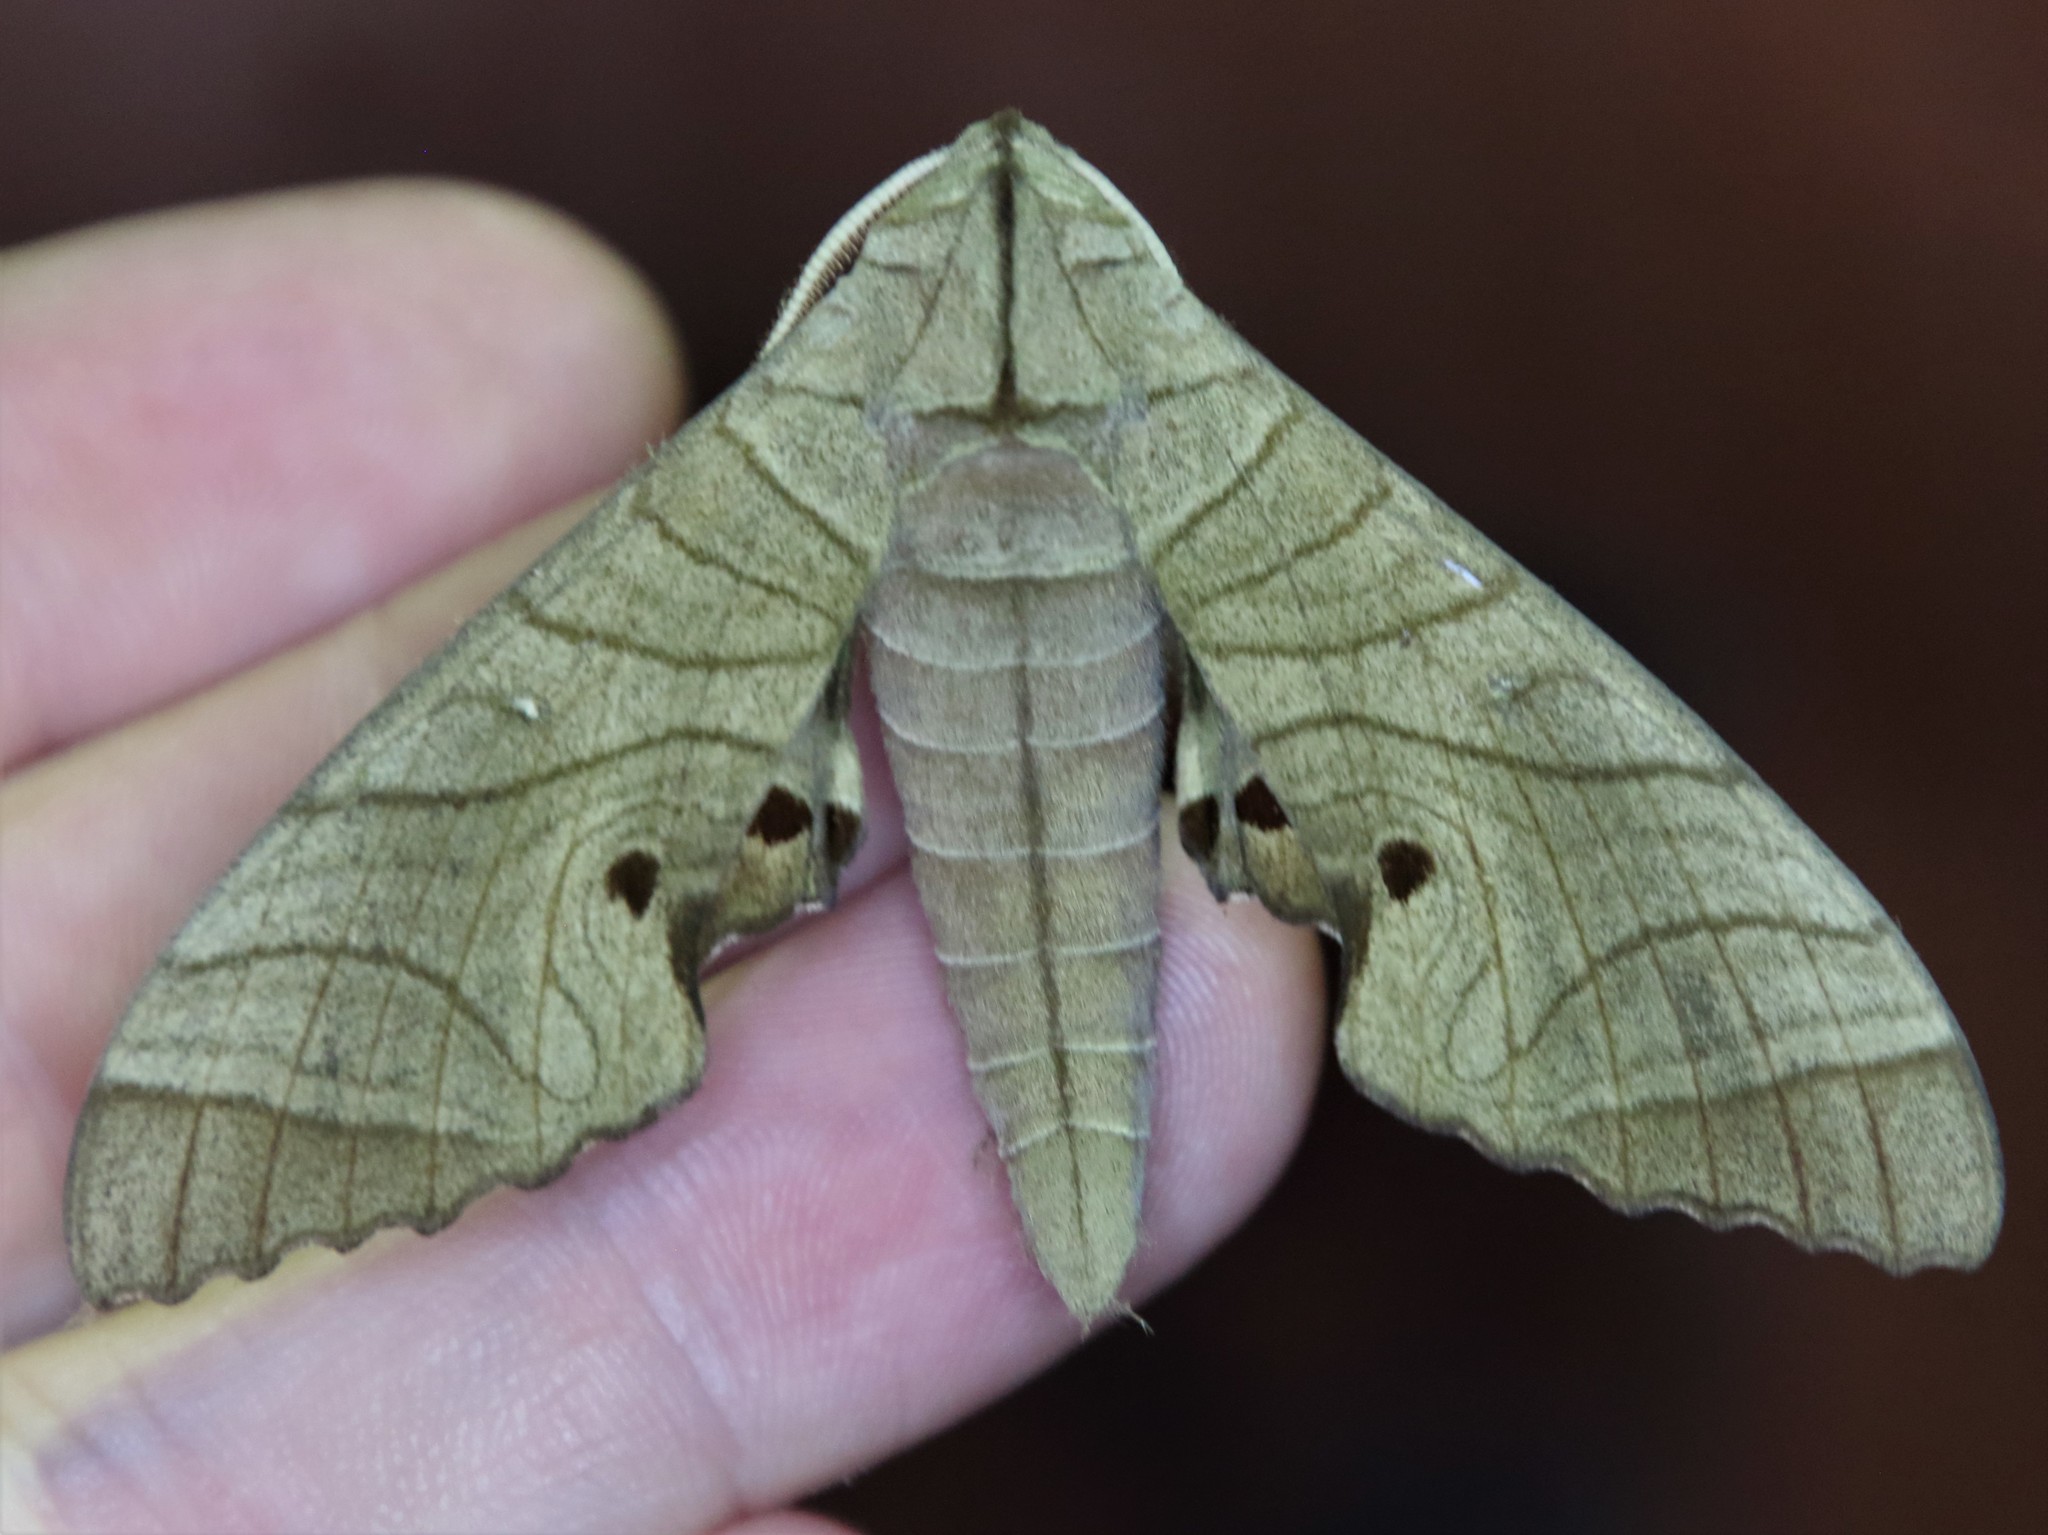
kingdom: Animalia
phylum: Arthropoda
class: Insecta
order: Lepidoptera
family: Sphingidae
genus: Marumba
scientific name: Marumba dyras
